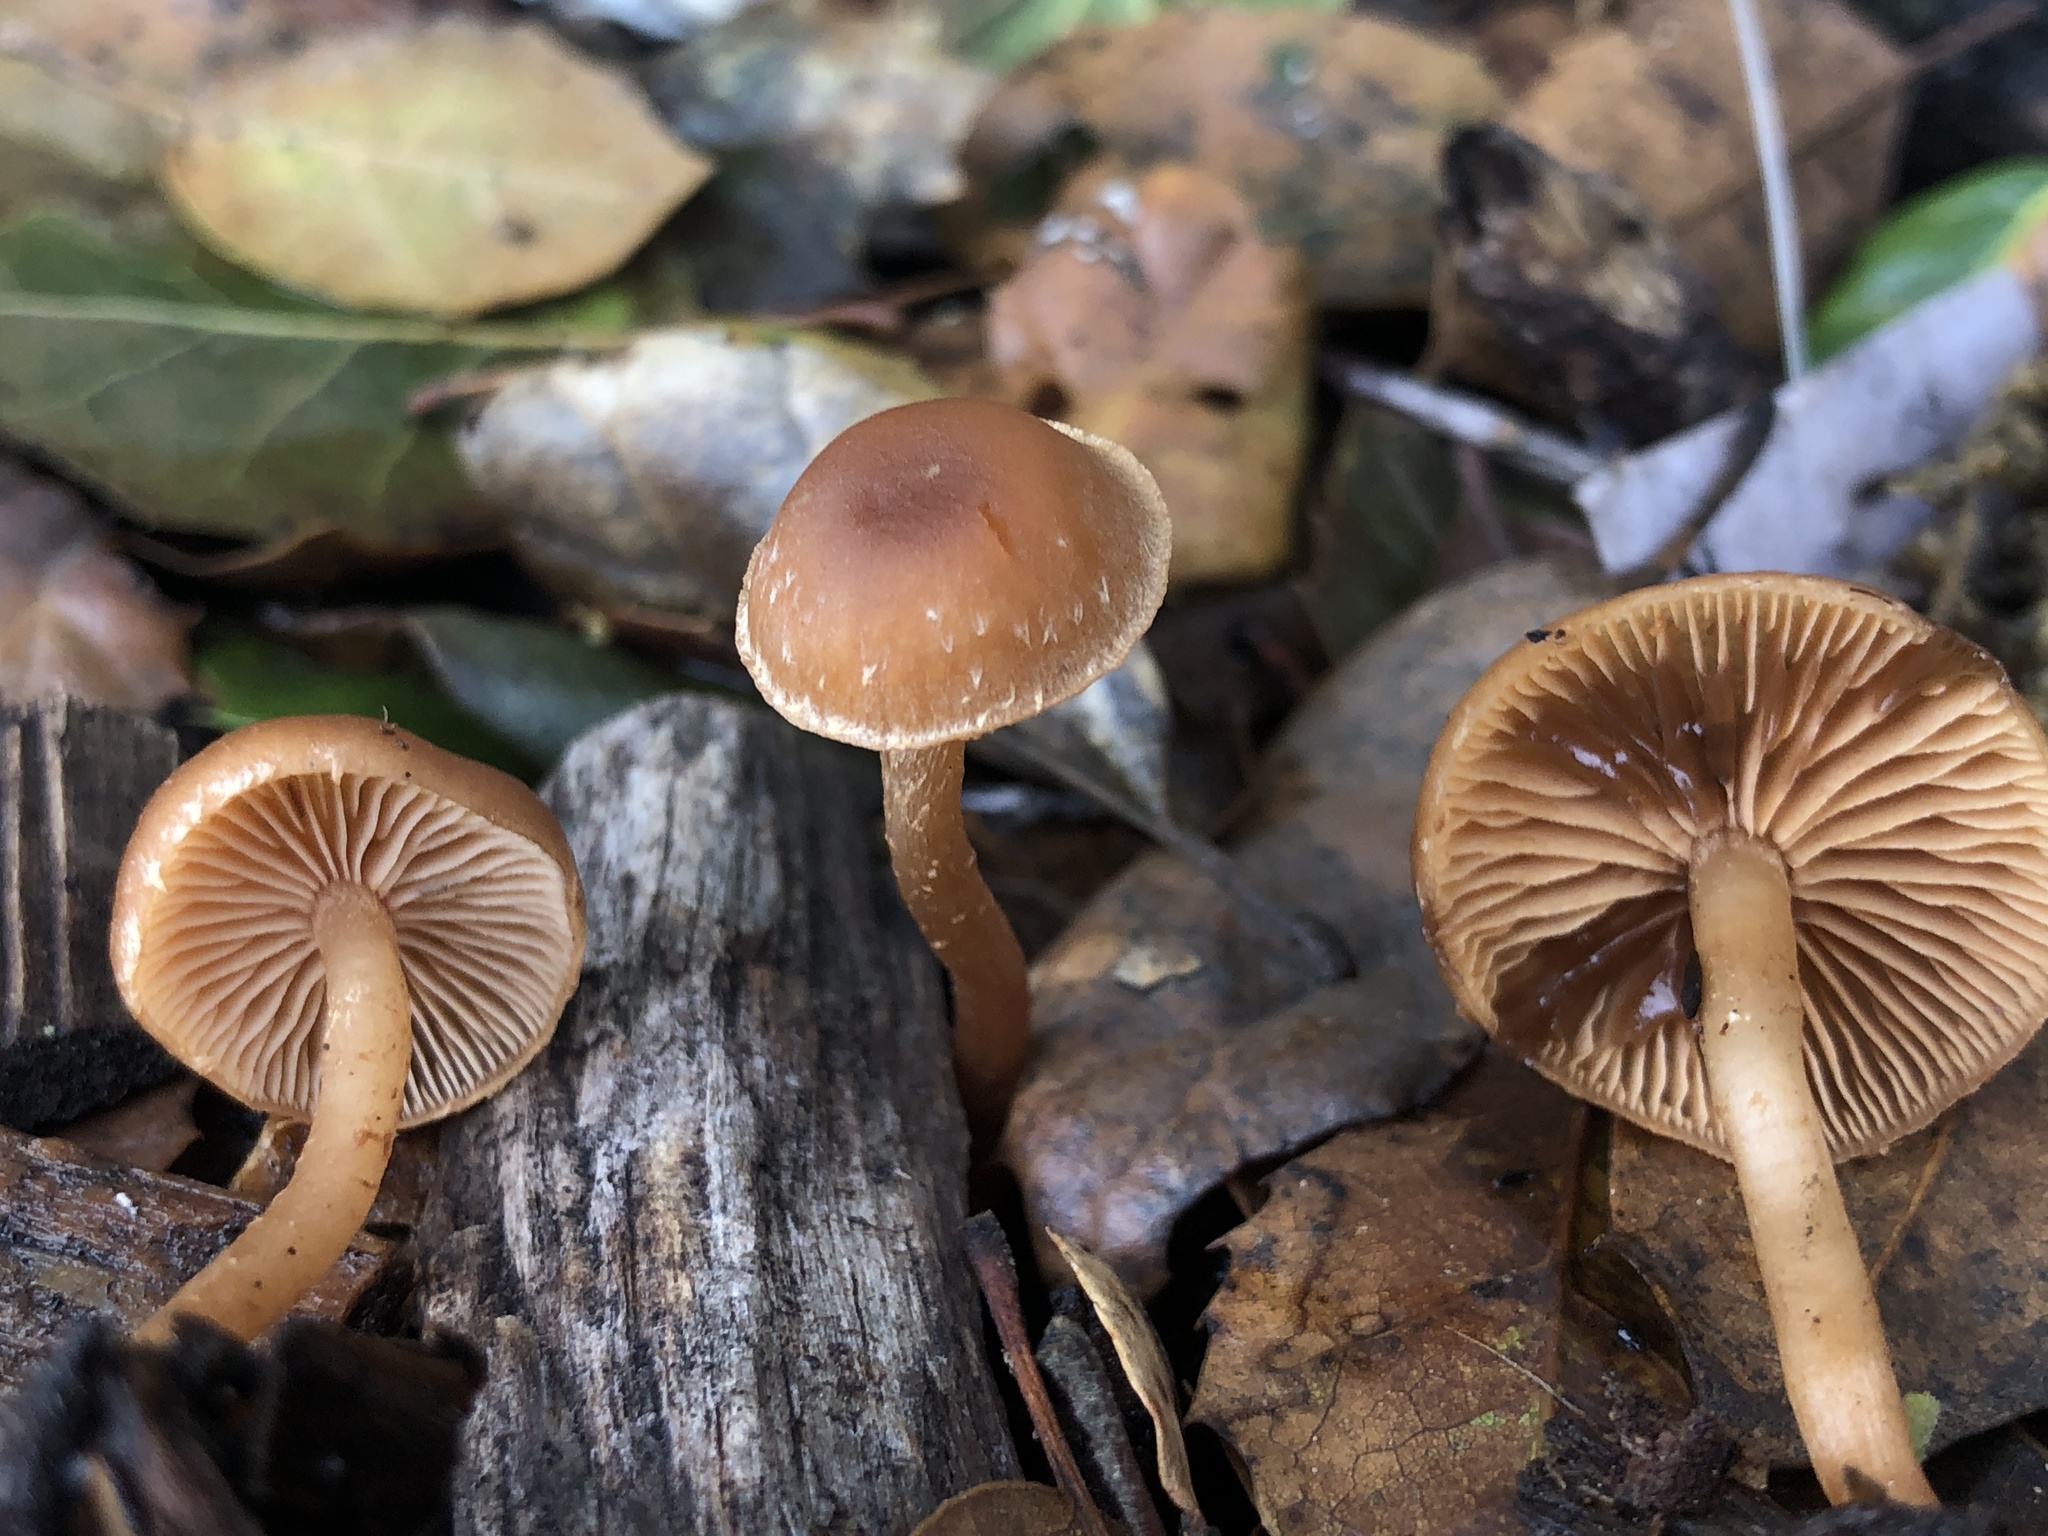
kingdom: Fungi
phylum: Basidiomycota
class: Agaricomycetes
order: Agaricales
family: Tubariaceae
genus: Tubaria
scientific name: Tubaria furfuracea
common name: Scurfy twiglet
